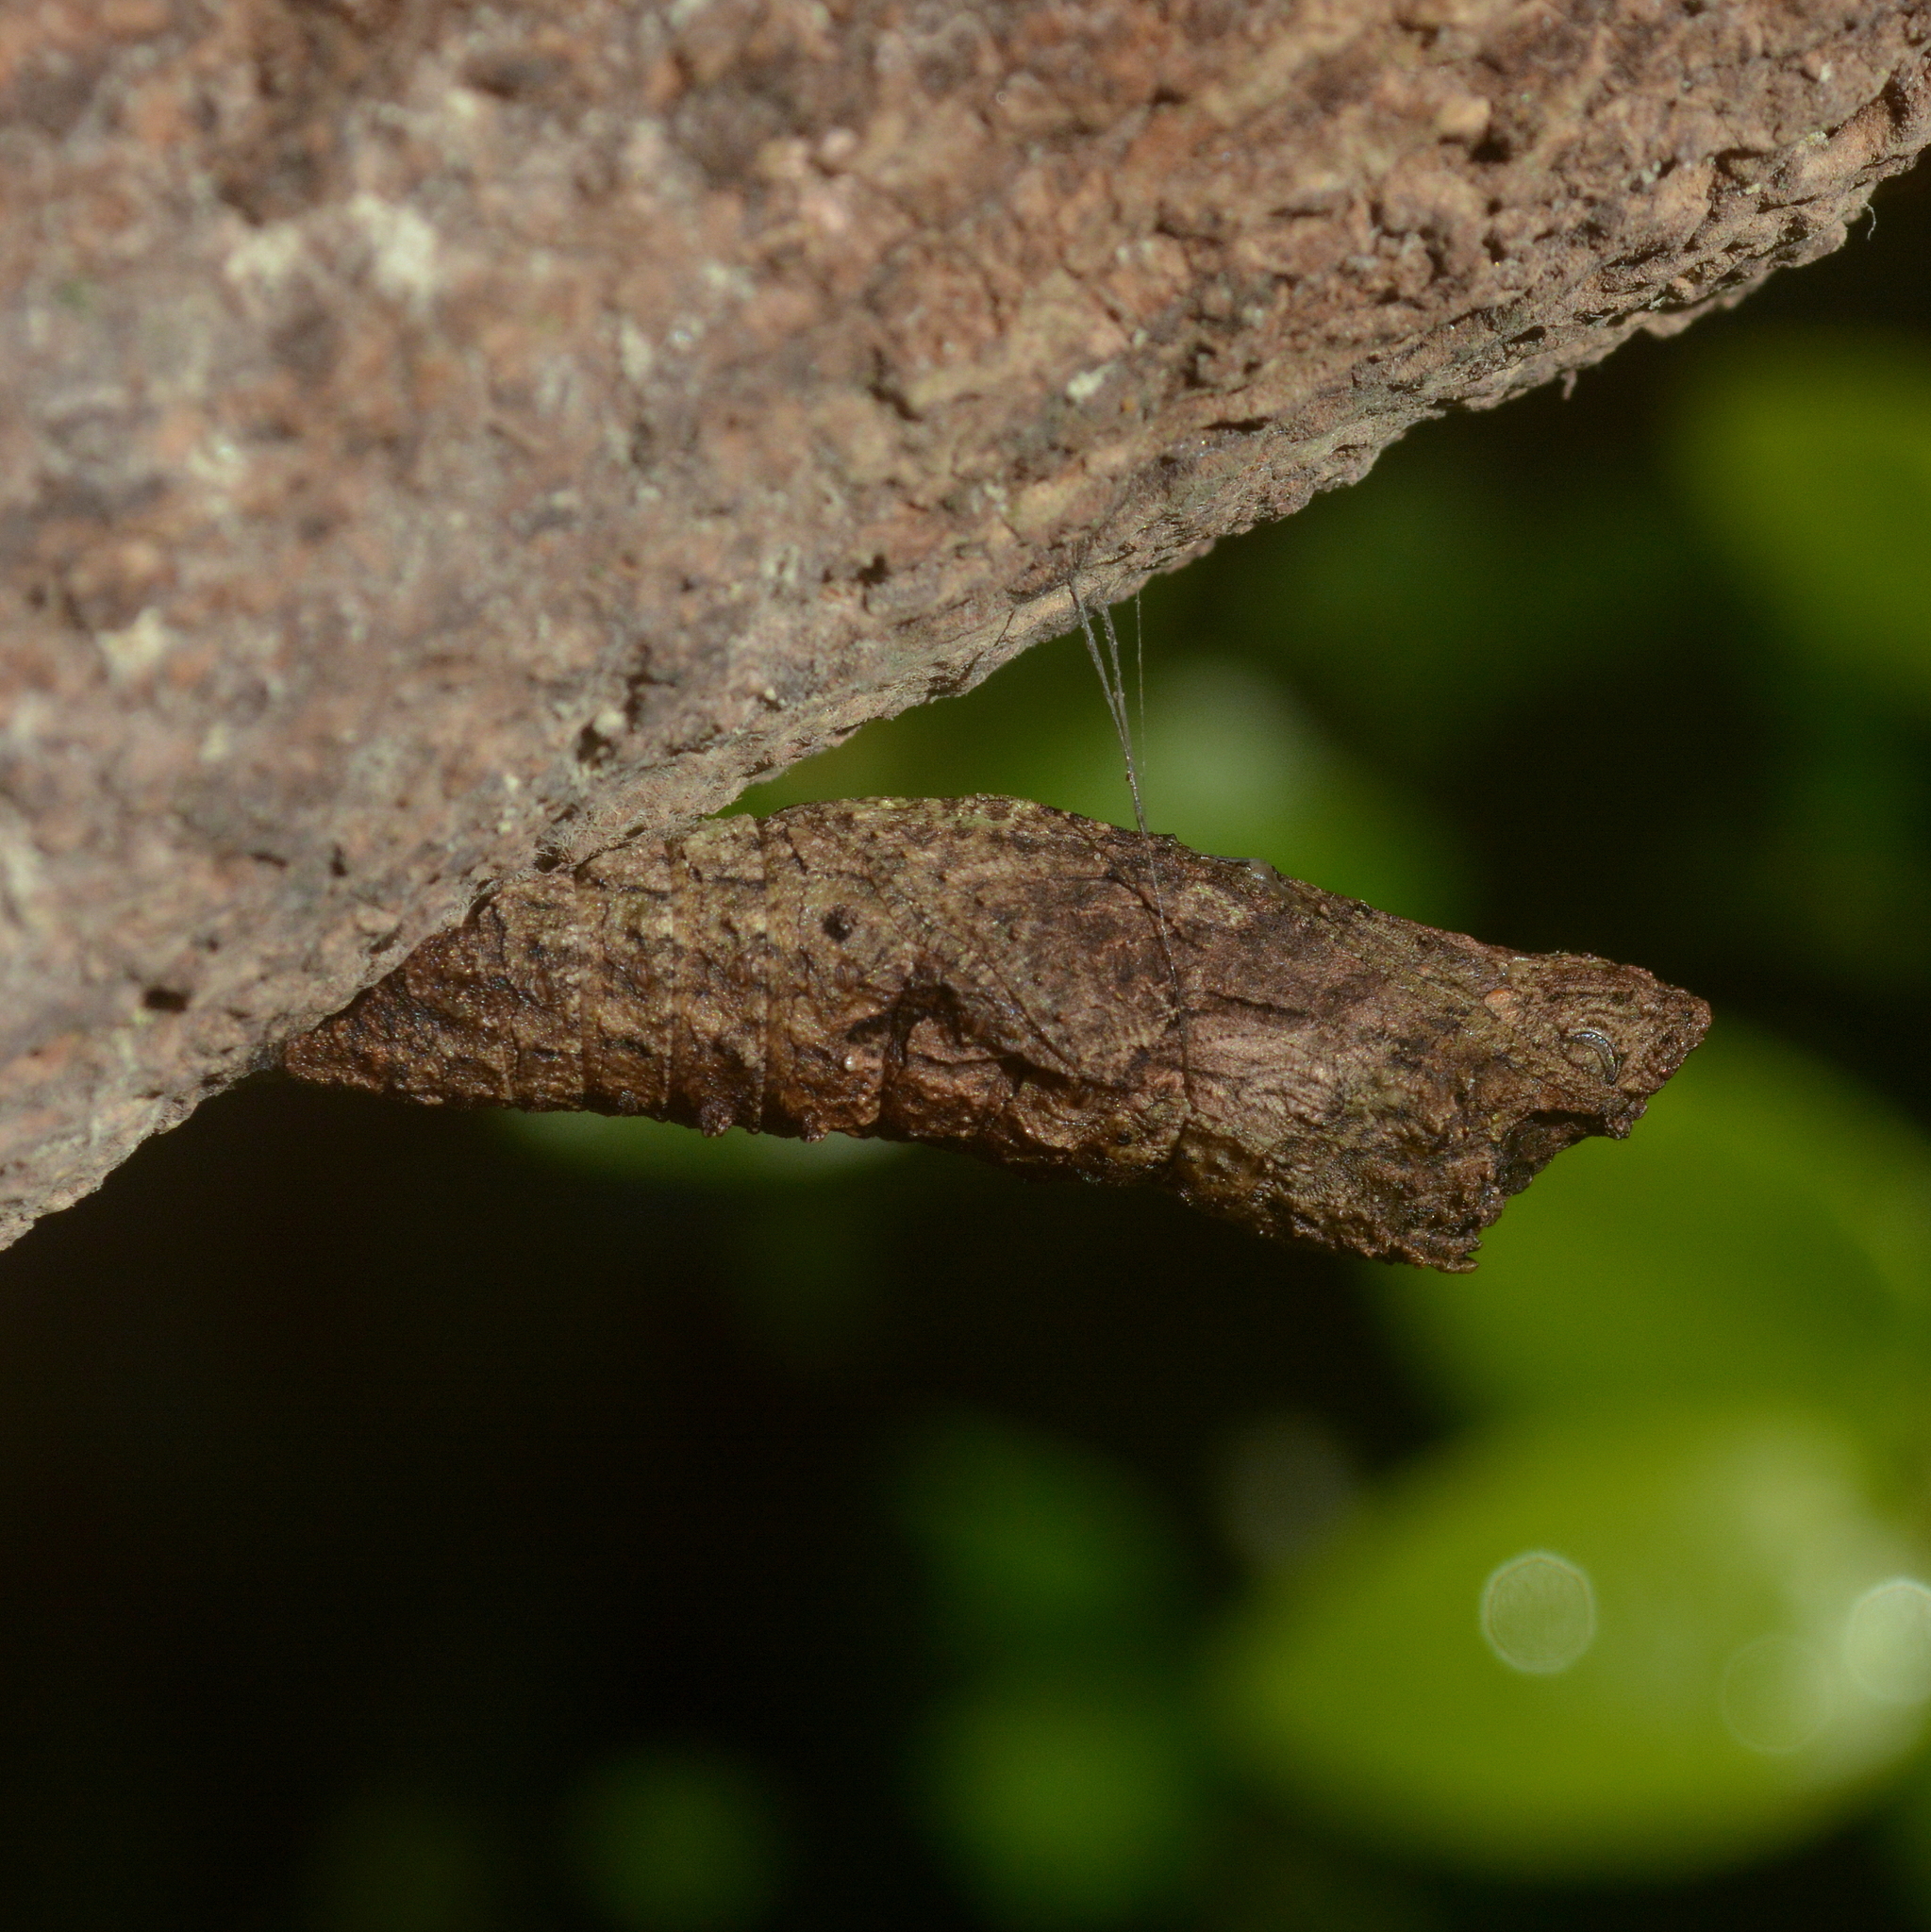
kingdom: Animalia
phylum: Arthropoda
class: Insecta
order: Lepidoptera
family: Papilionidae
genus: Papilio
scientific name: Papilio anchisiades
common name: Idaes swallowtail
